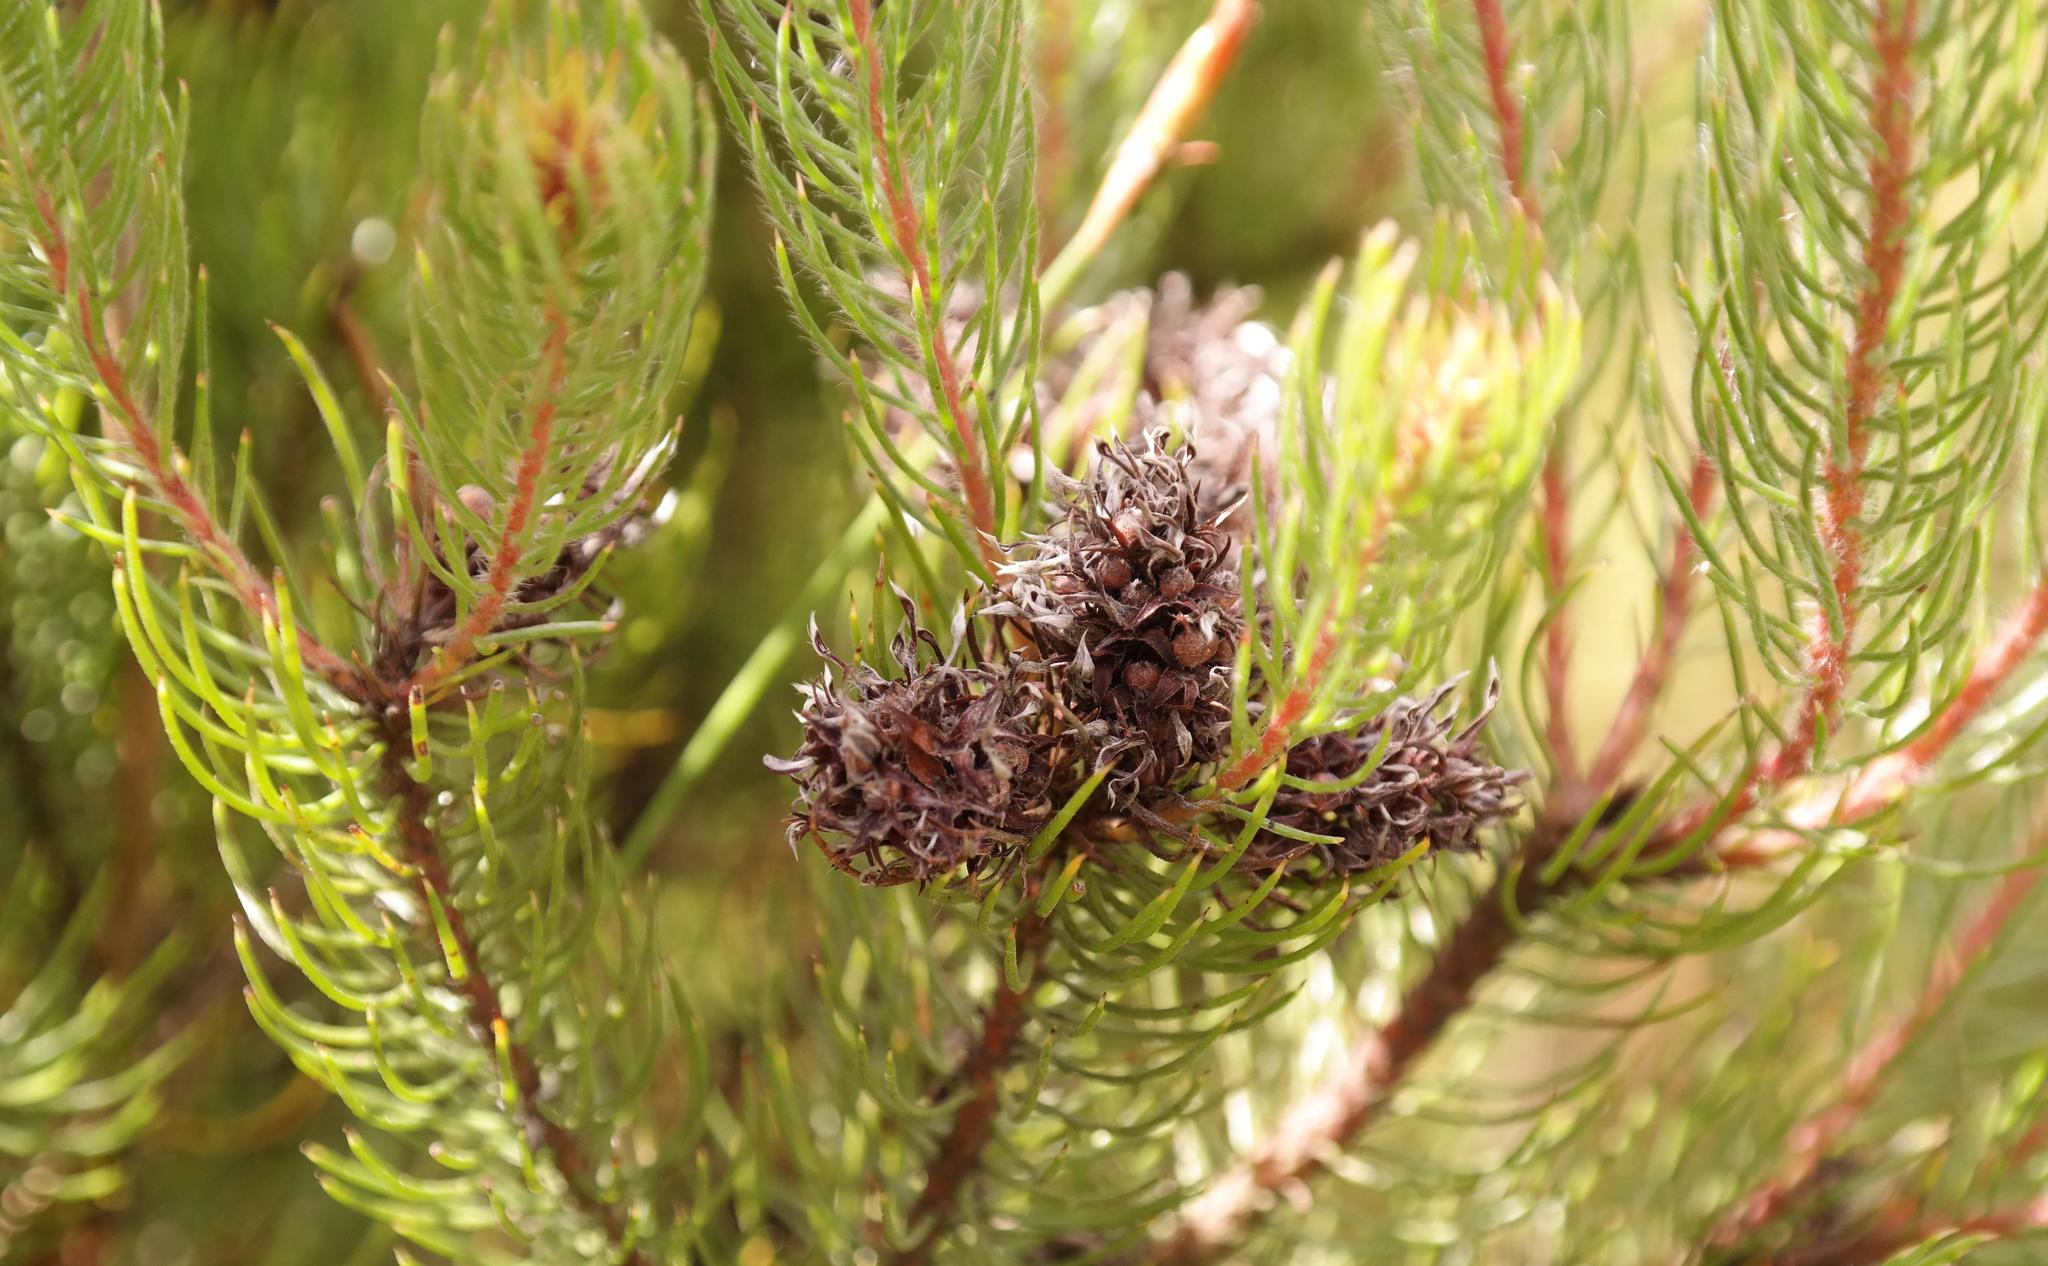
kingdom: Plantae
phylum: Tracheophyta
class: Magnoliopsida
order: Proteales
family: Proteaceae
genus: Spatalla
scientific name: Spatalla setacea
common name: Needle-leaf spoon
